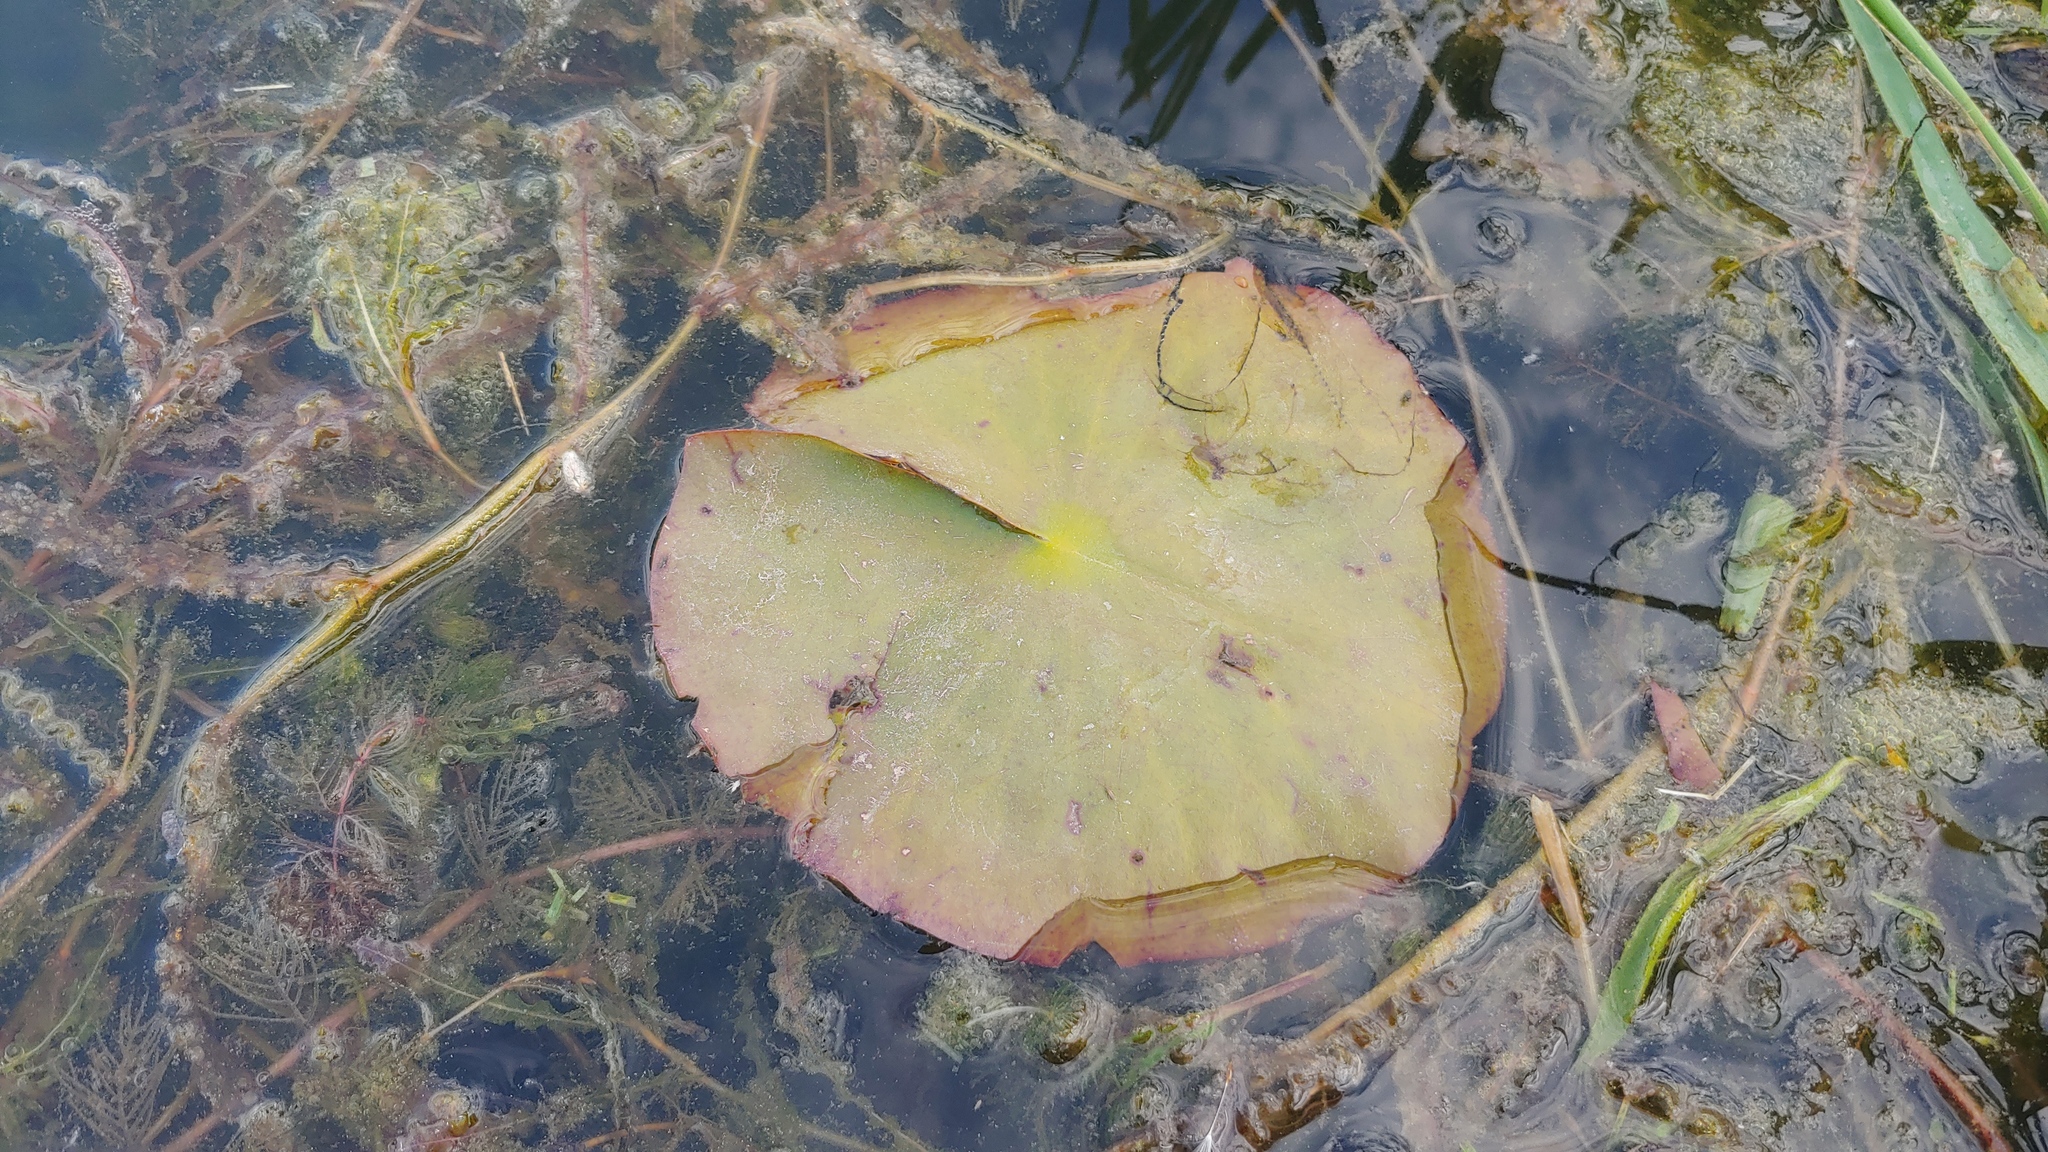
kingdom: Plantae
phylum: Tracheophyta
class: Magnoliopsida
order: Nymphaeales
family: Nymphaeaceae
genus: Nymphaea
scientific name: Nymphaea odorata
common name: Fragrant water-lily
